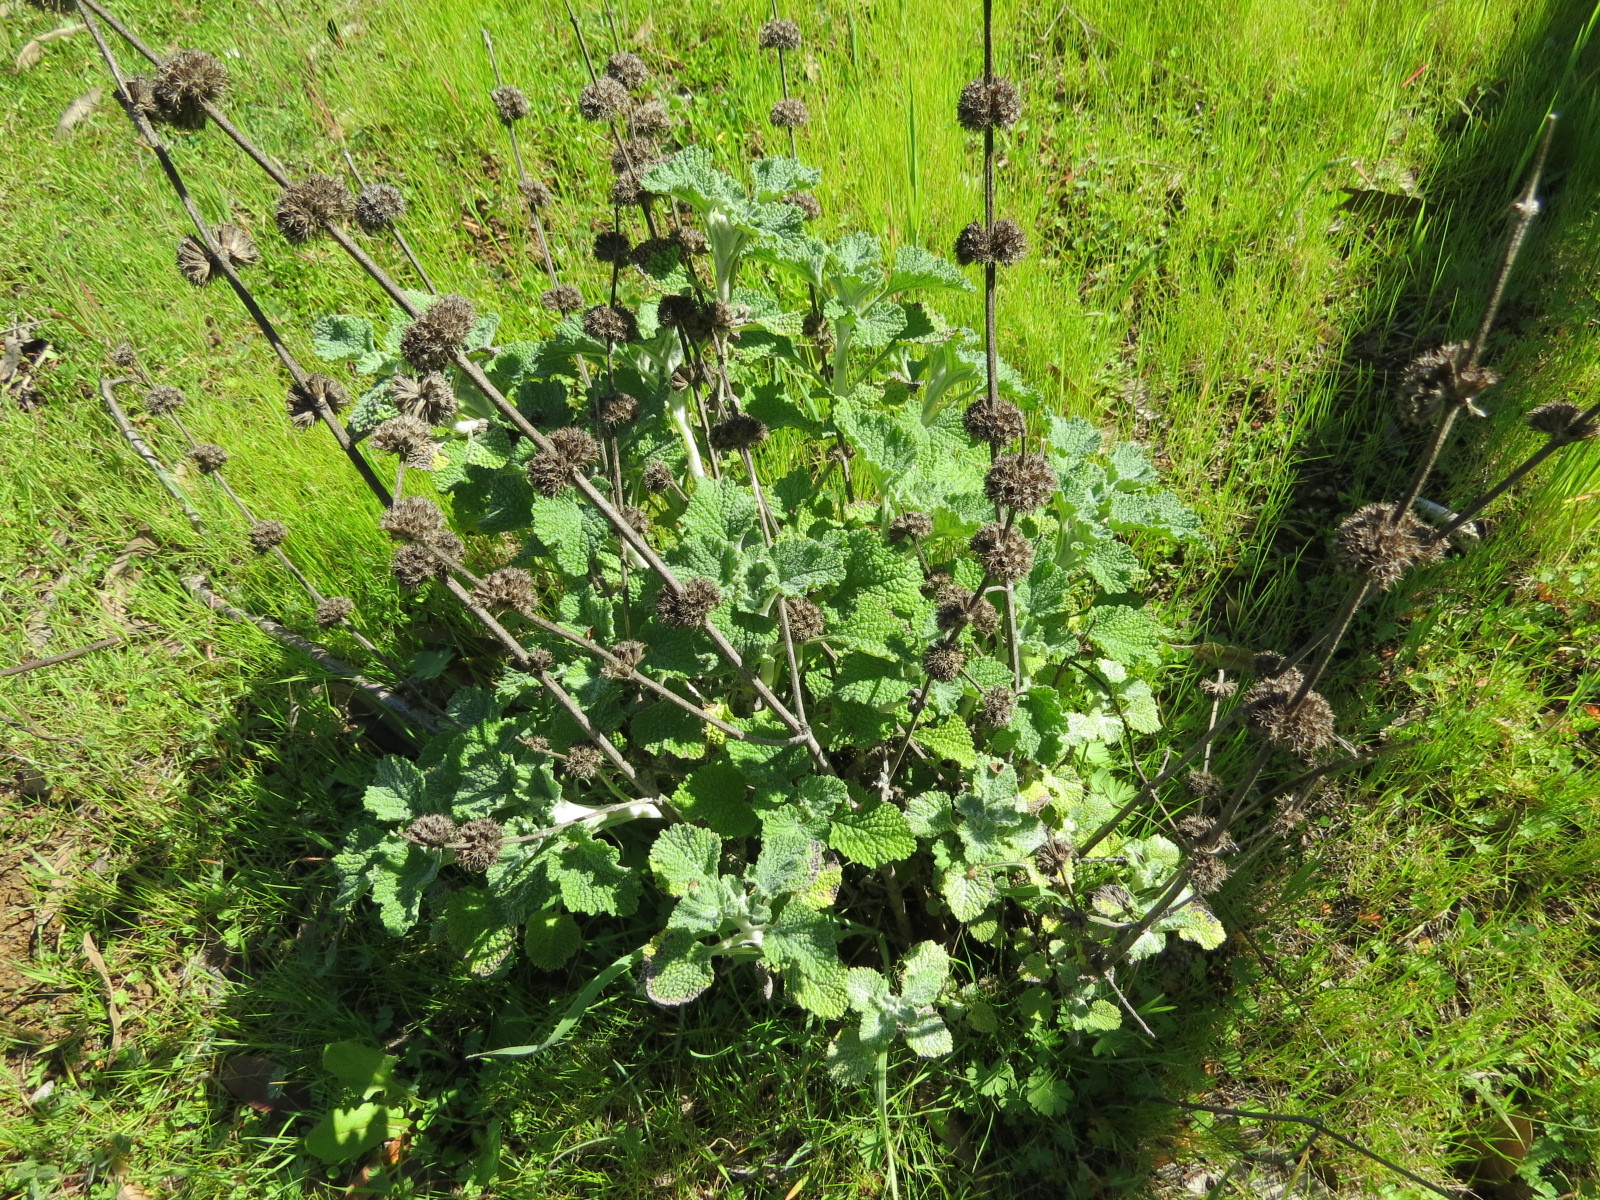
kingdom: Plantae
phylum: Tracheophyta
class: Magnoliopsida
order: Lamiales
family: Lamiaceae
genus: Marrubium
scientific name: Marrubium vulgare
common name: Horehound
